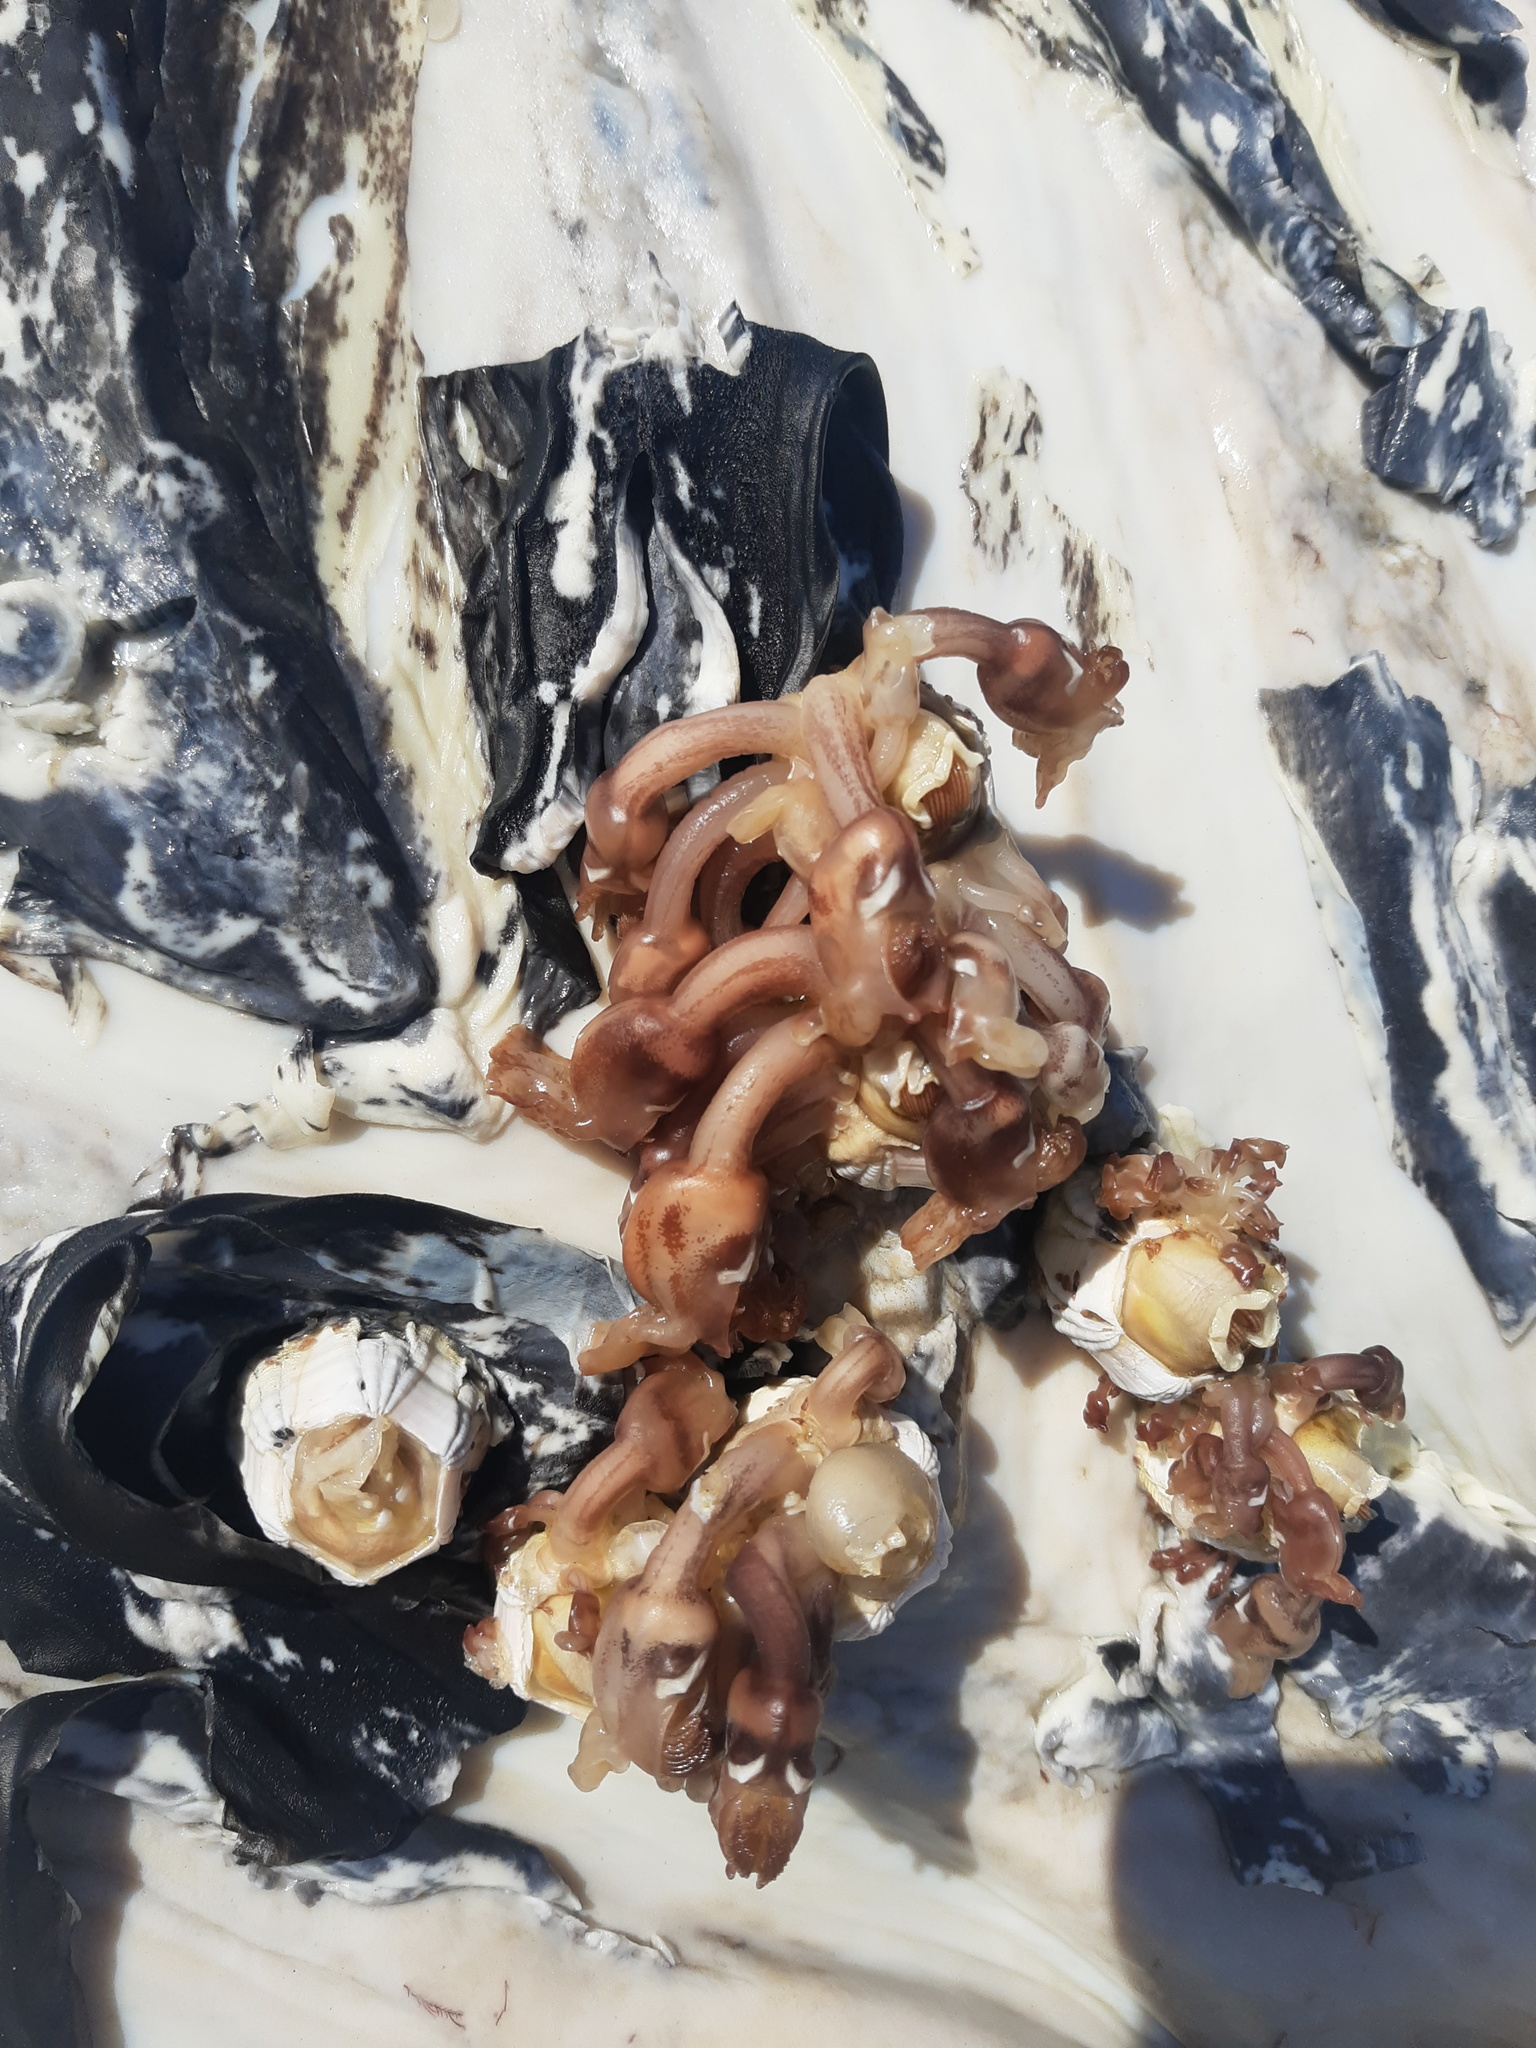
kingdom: Animalia
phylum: Arthropoda
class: Maxillopoda
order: Pedunculata
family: Lepadidae
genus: Conchoderma
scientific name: Conchoderma auritum
